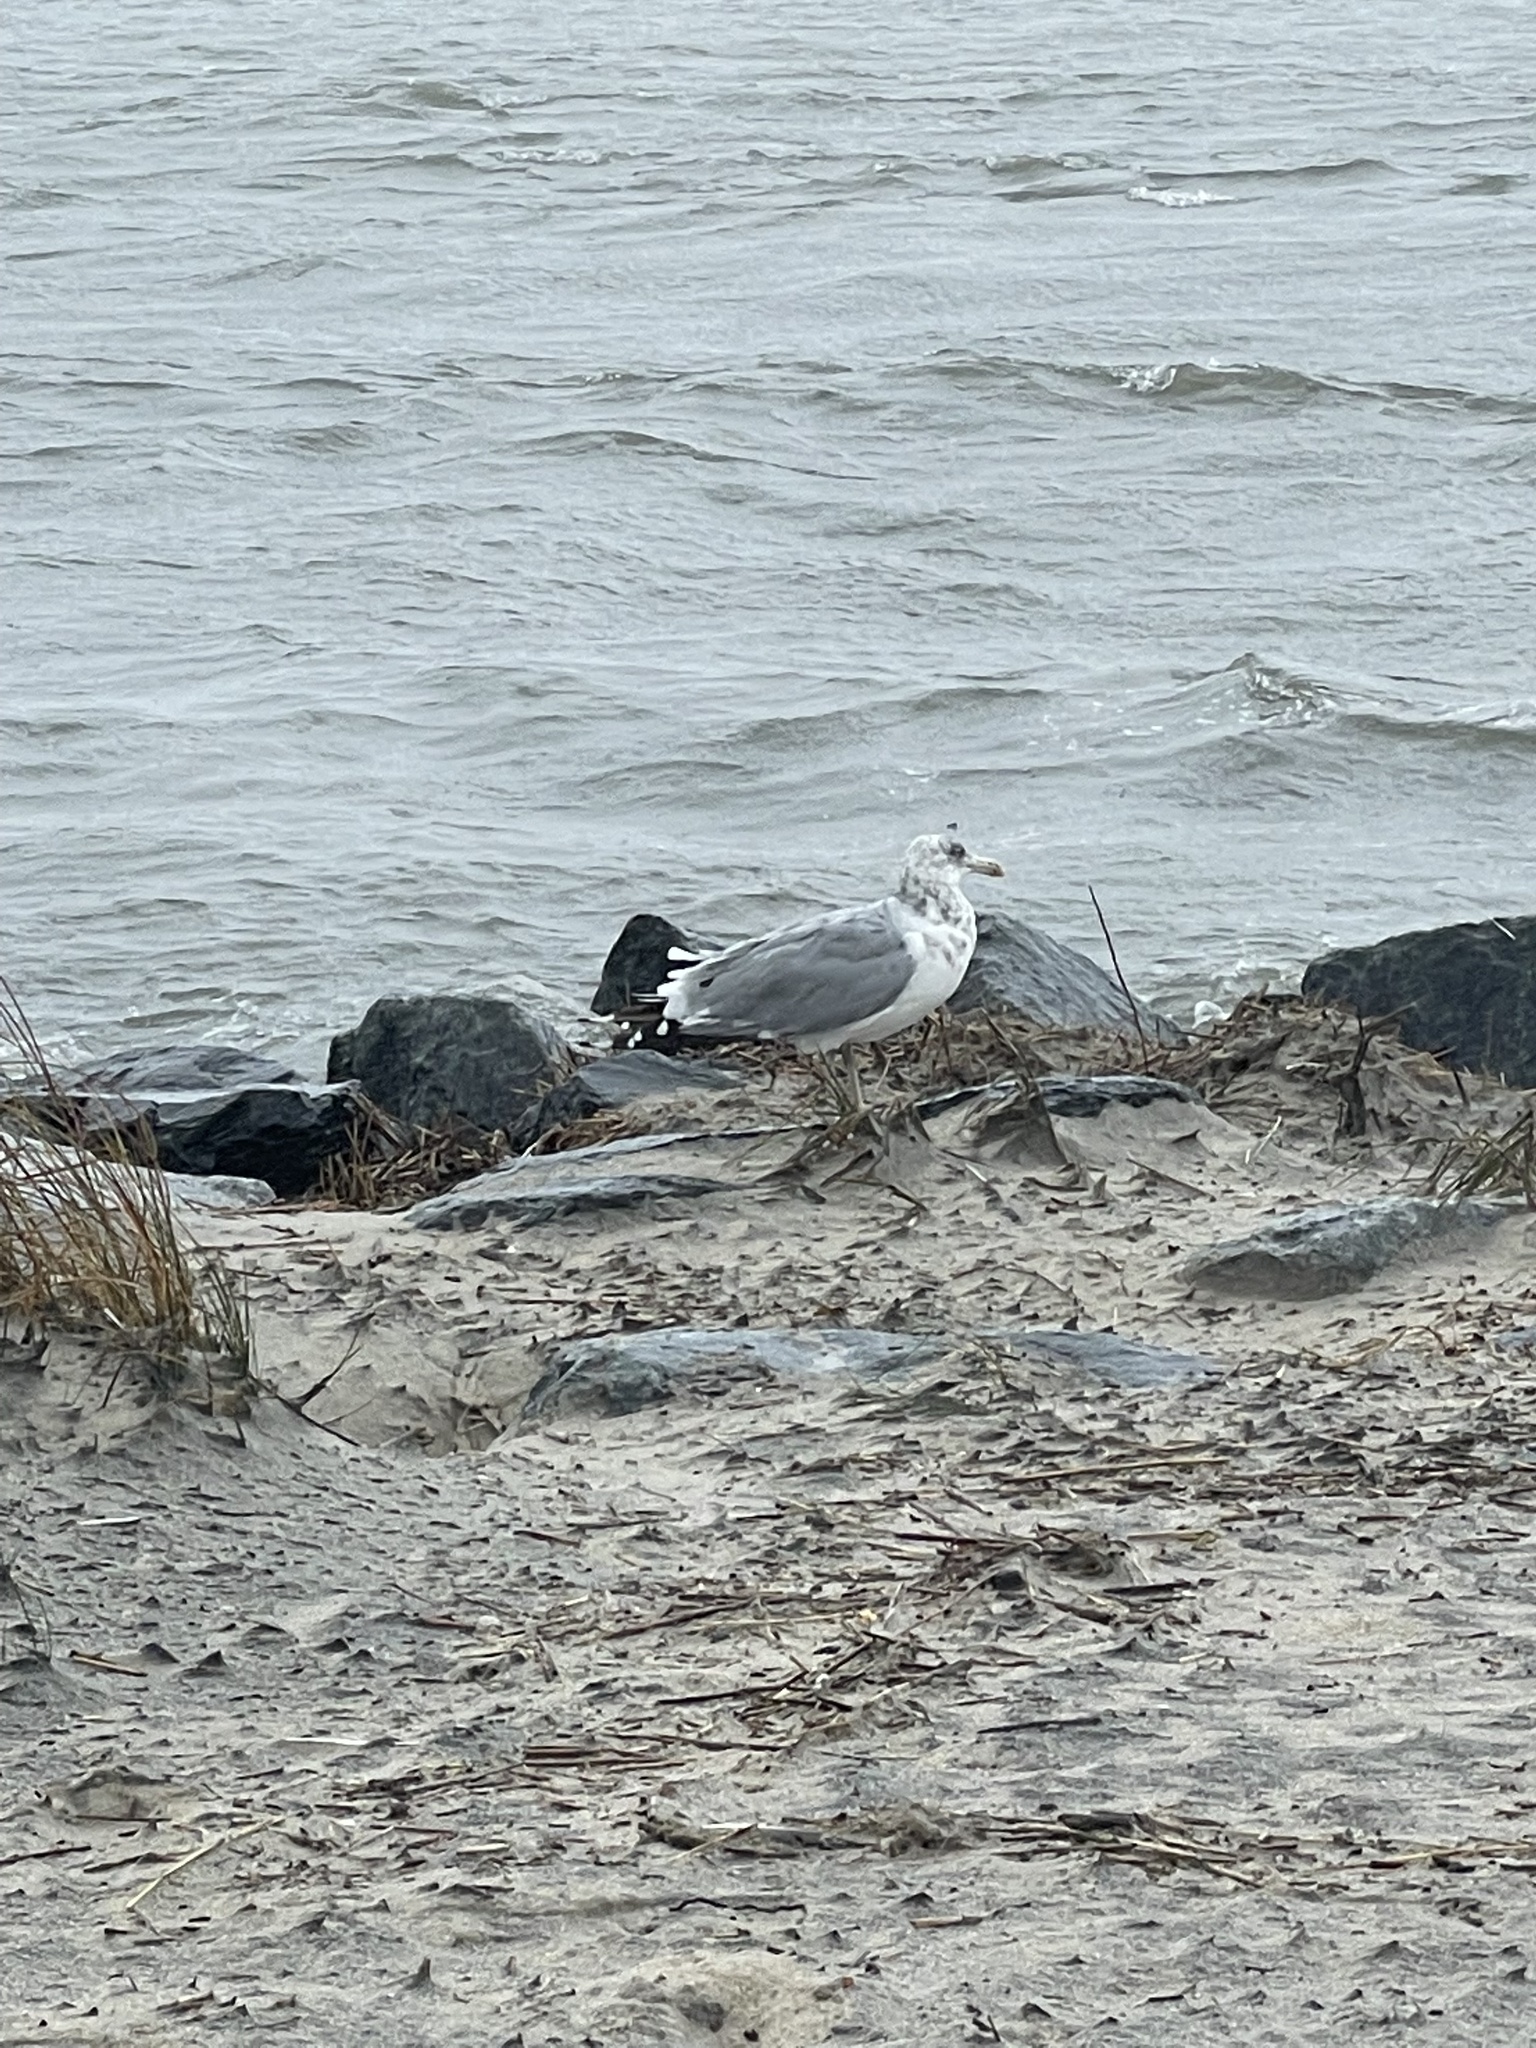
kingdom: Animalia
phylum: Chordata
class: Aves
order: Charadriiformes
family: Laridae
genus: Larus
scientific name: Larus argentatus
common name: Herring gull
